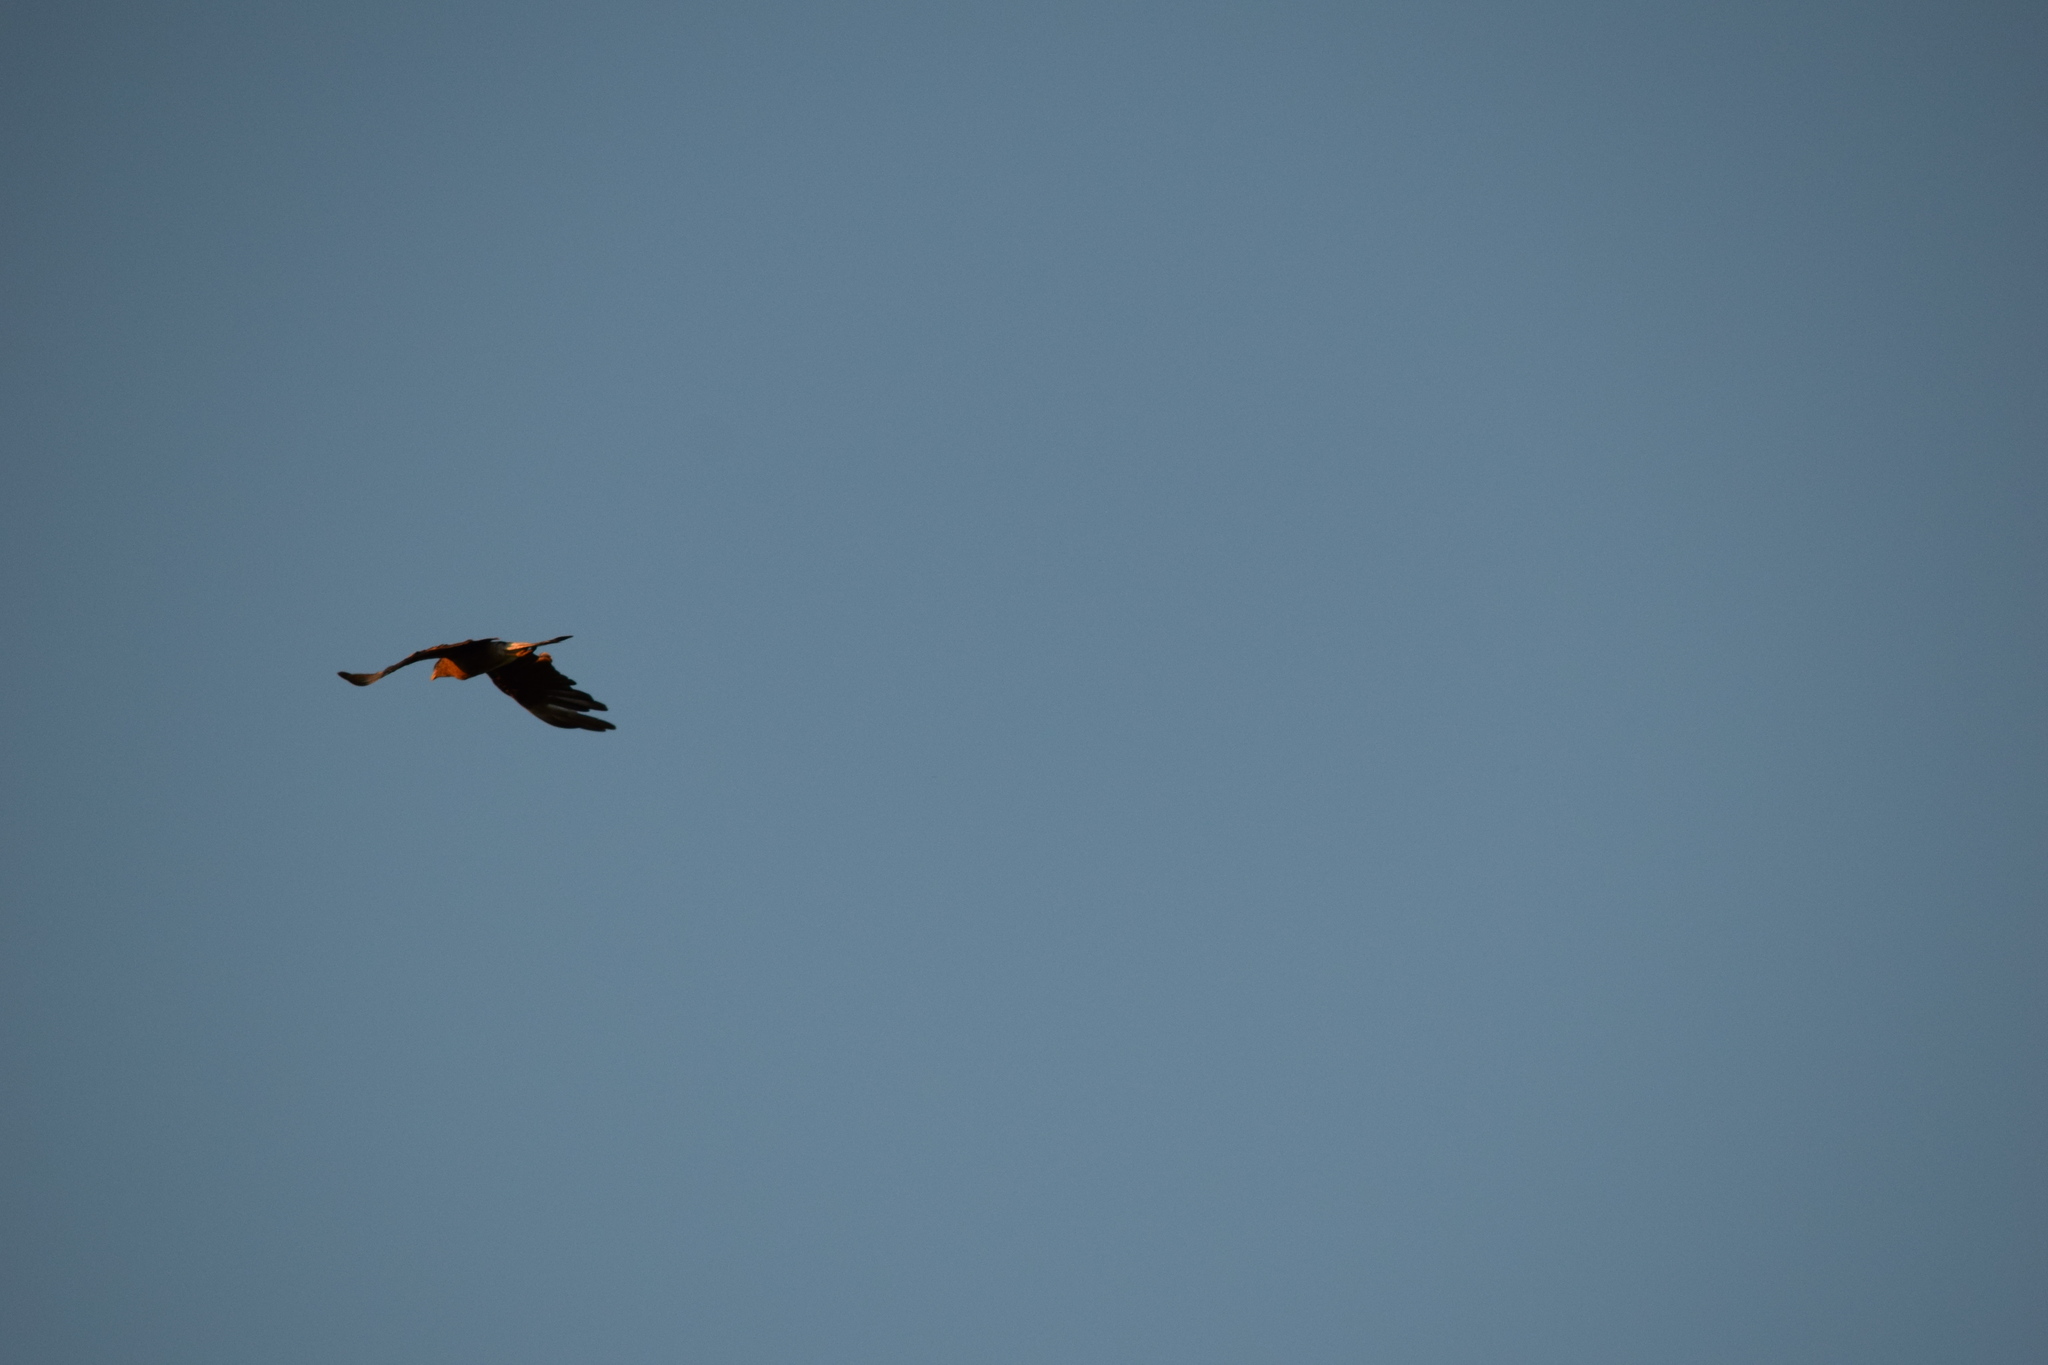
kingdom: Animalia
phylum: Chordata
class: Aves
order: Falconiformes
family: Falconidae
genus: Daptrius
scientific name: Daptrius
